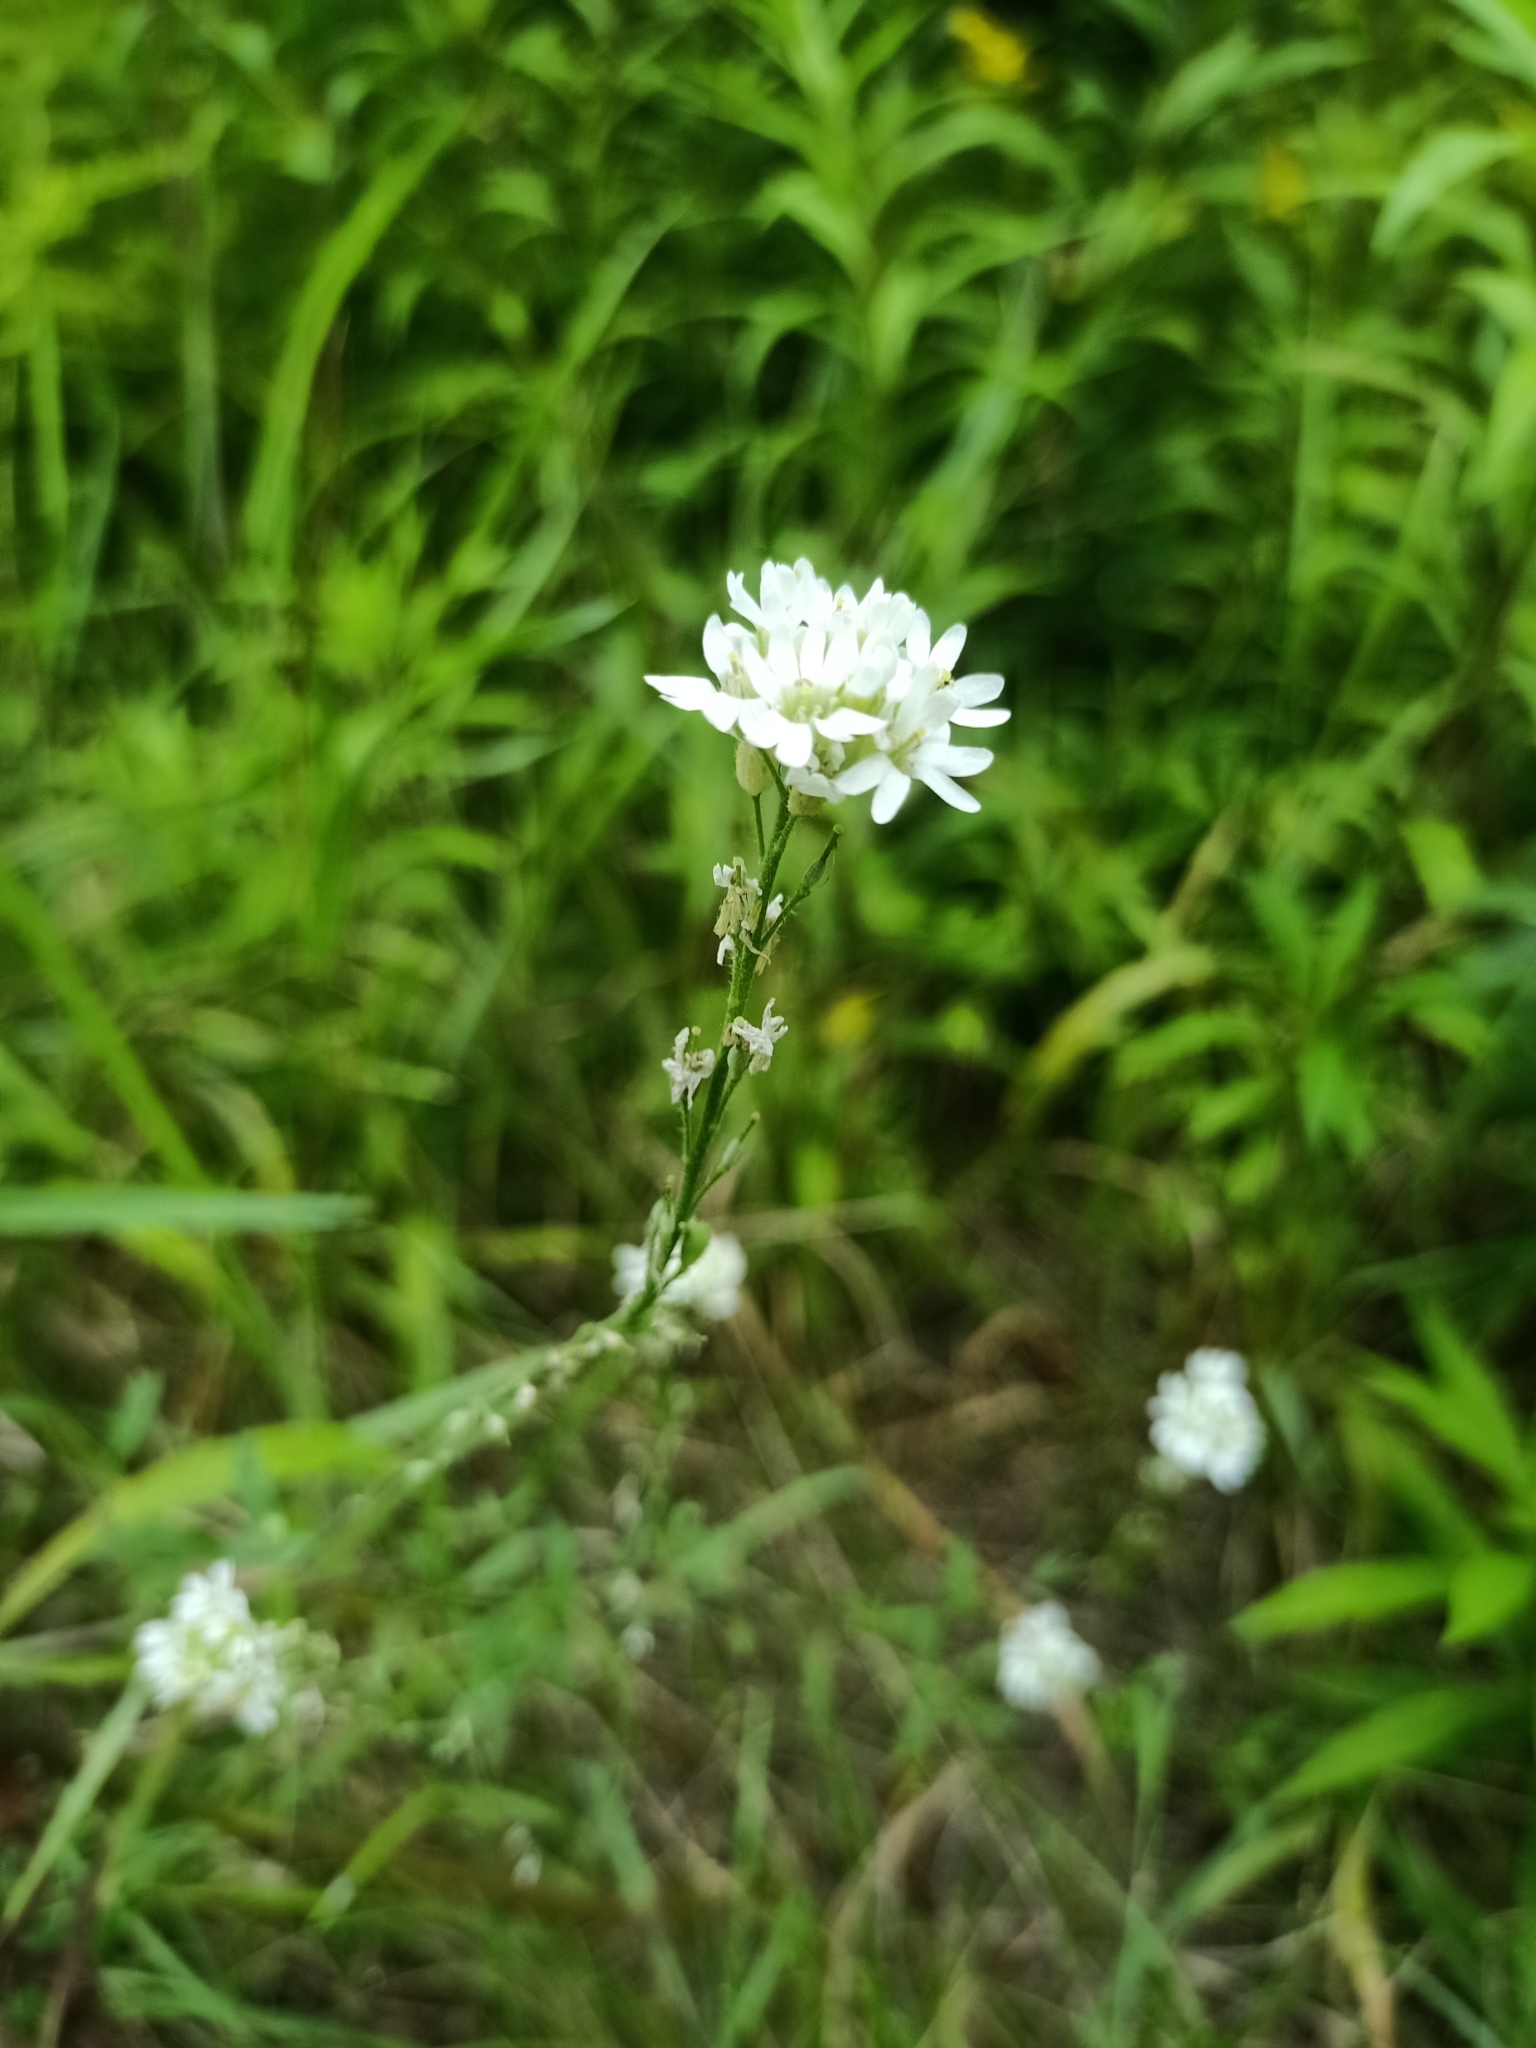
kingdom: Plantae
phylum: Tracheophyta
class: Magnoliopsida
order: Brassicales
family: Brassicaceae
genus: Berteroa
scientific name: Berteroa incana
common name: Hoary alison
